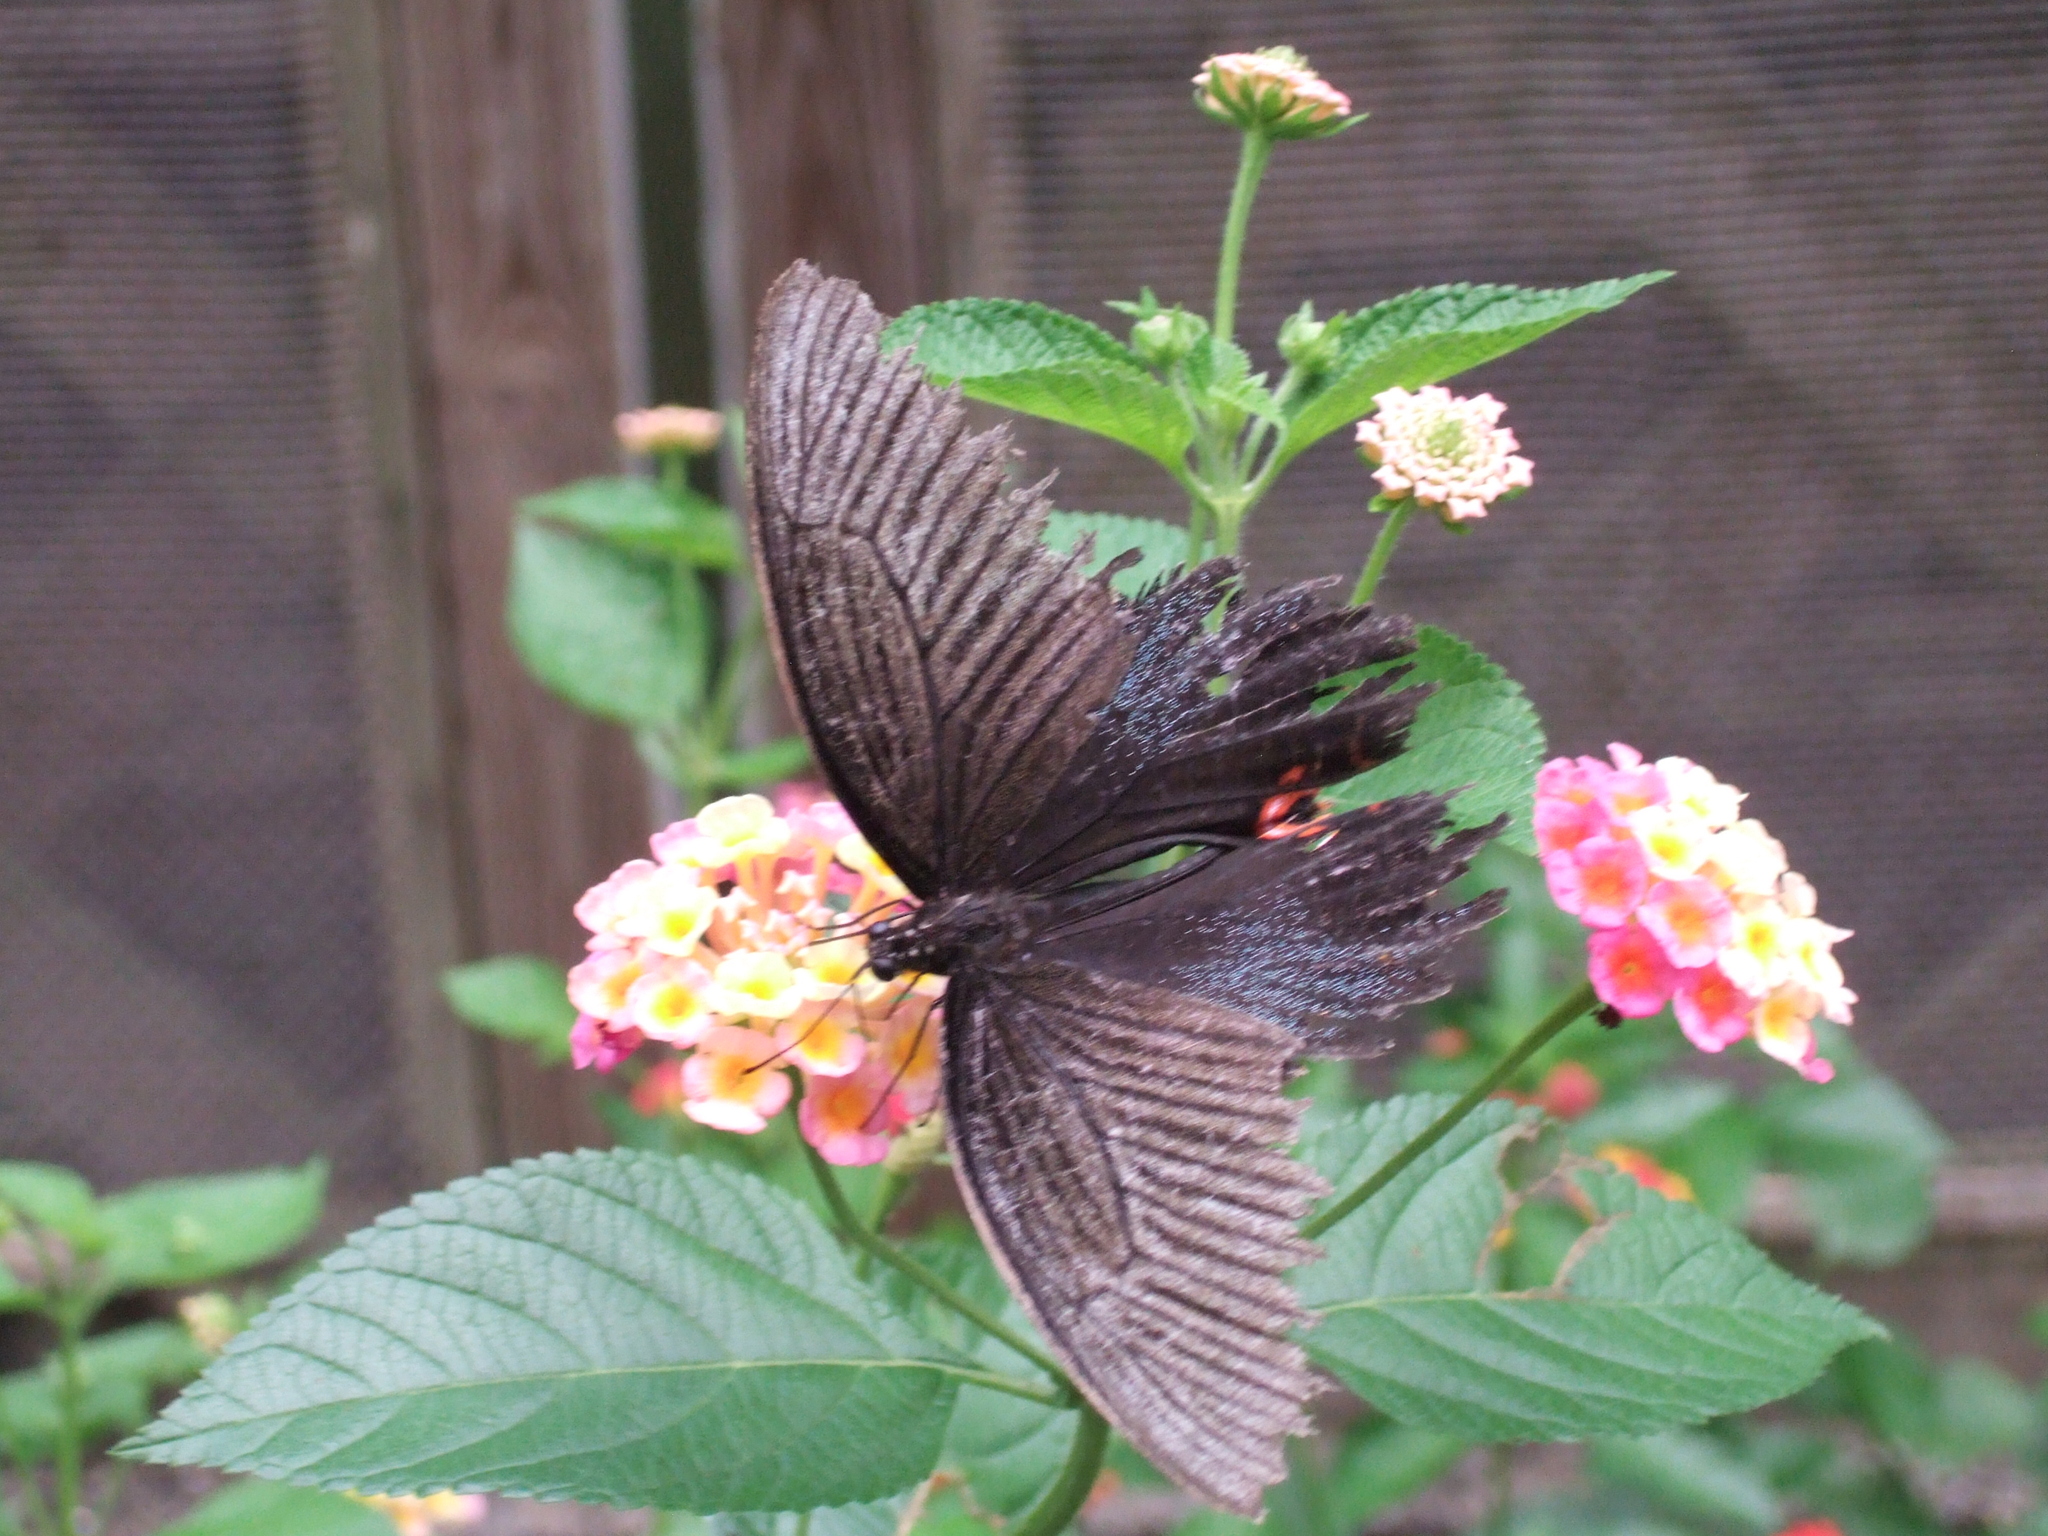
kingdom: Animalia
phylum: Arthropoda
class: Insecta
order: Lepidoptera
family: Papilionidae
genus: Papilio
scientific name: Papilio protenor
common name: Spangle
